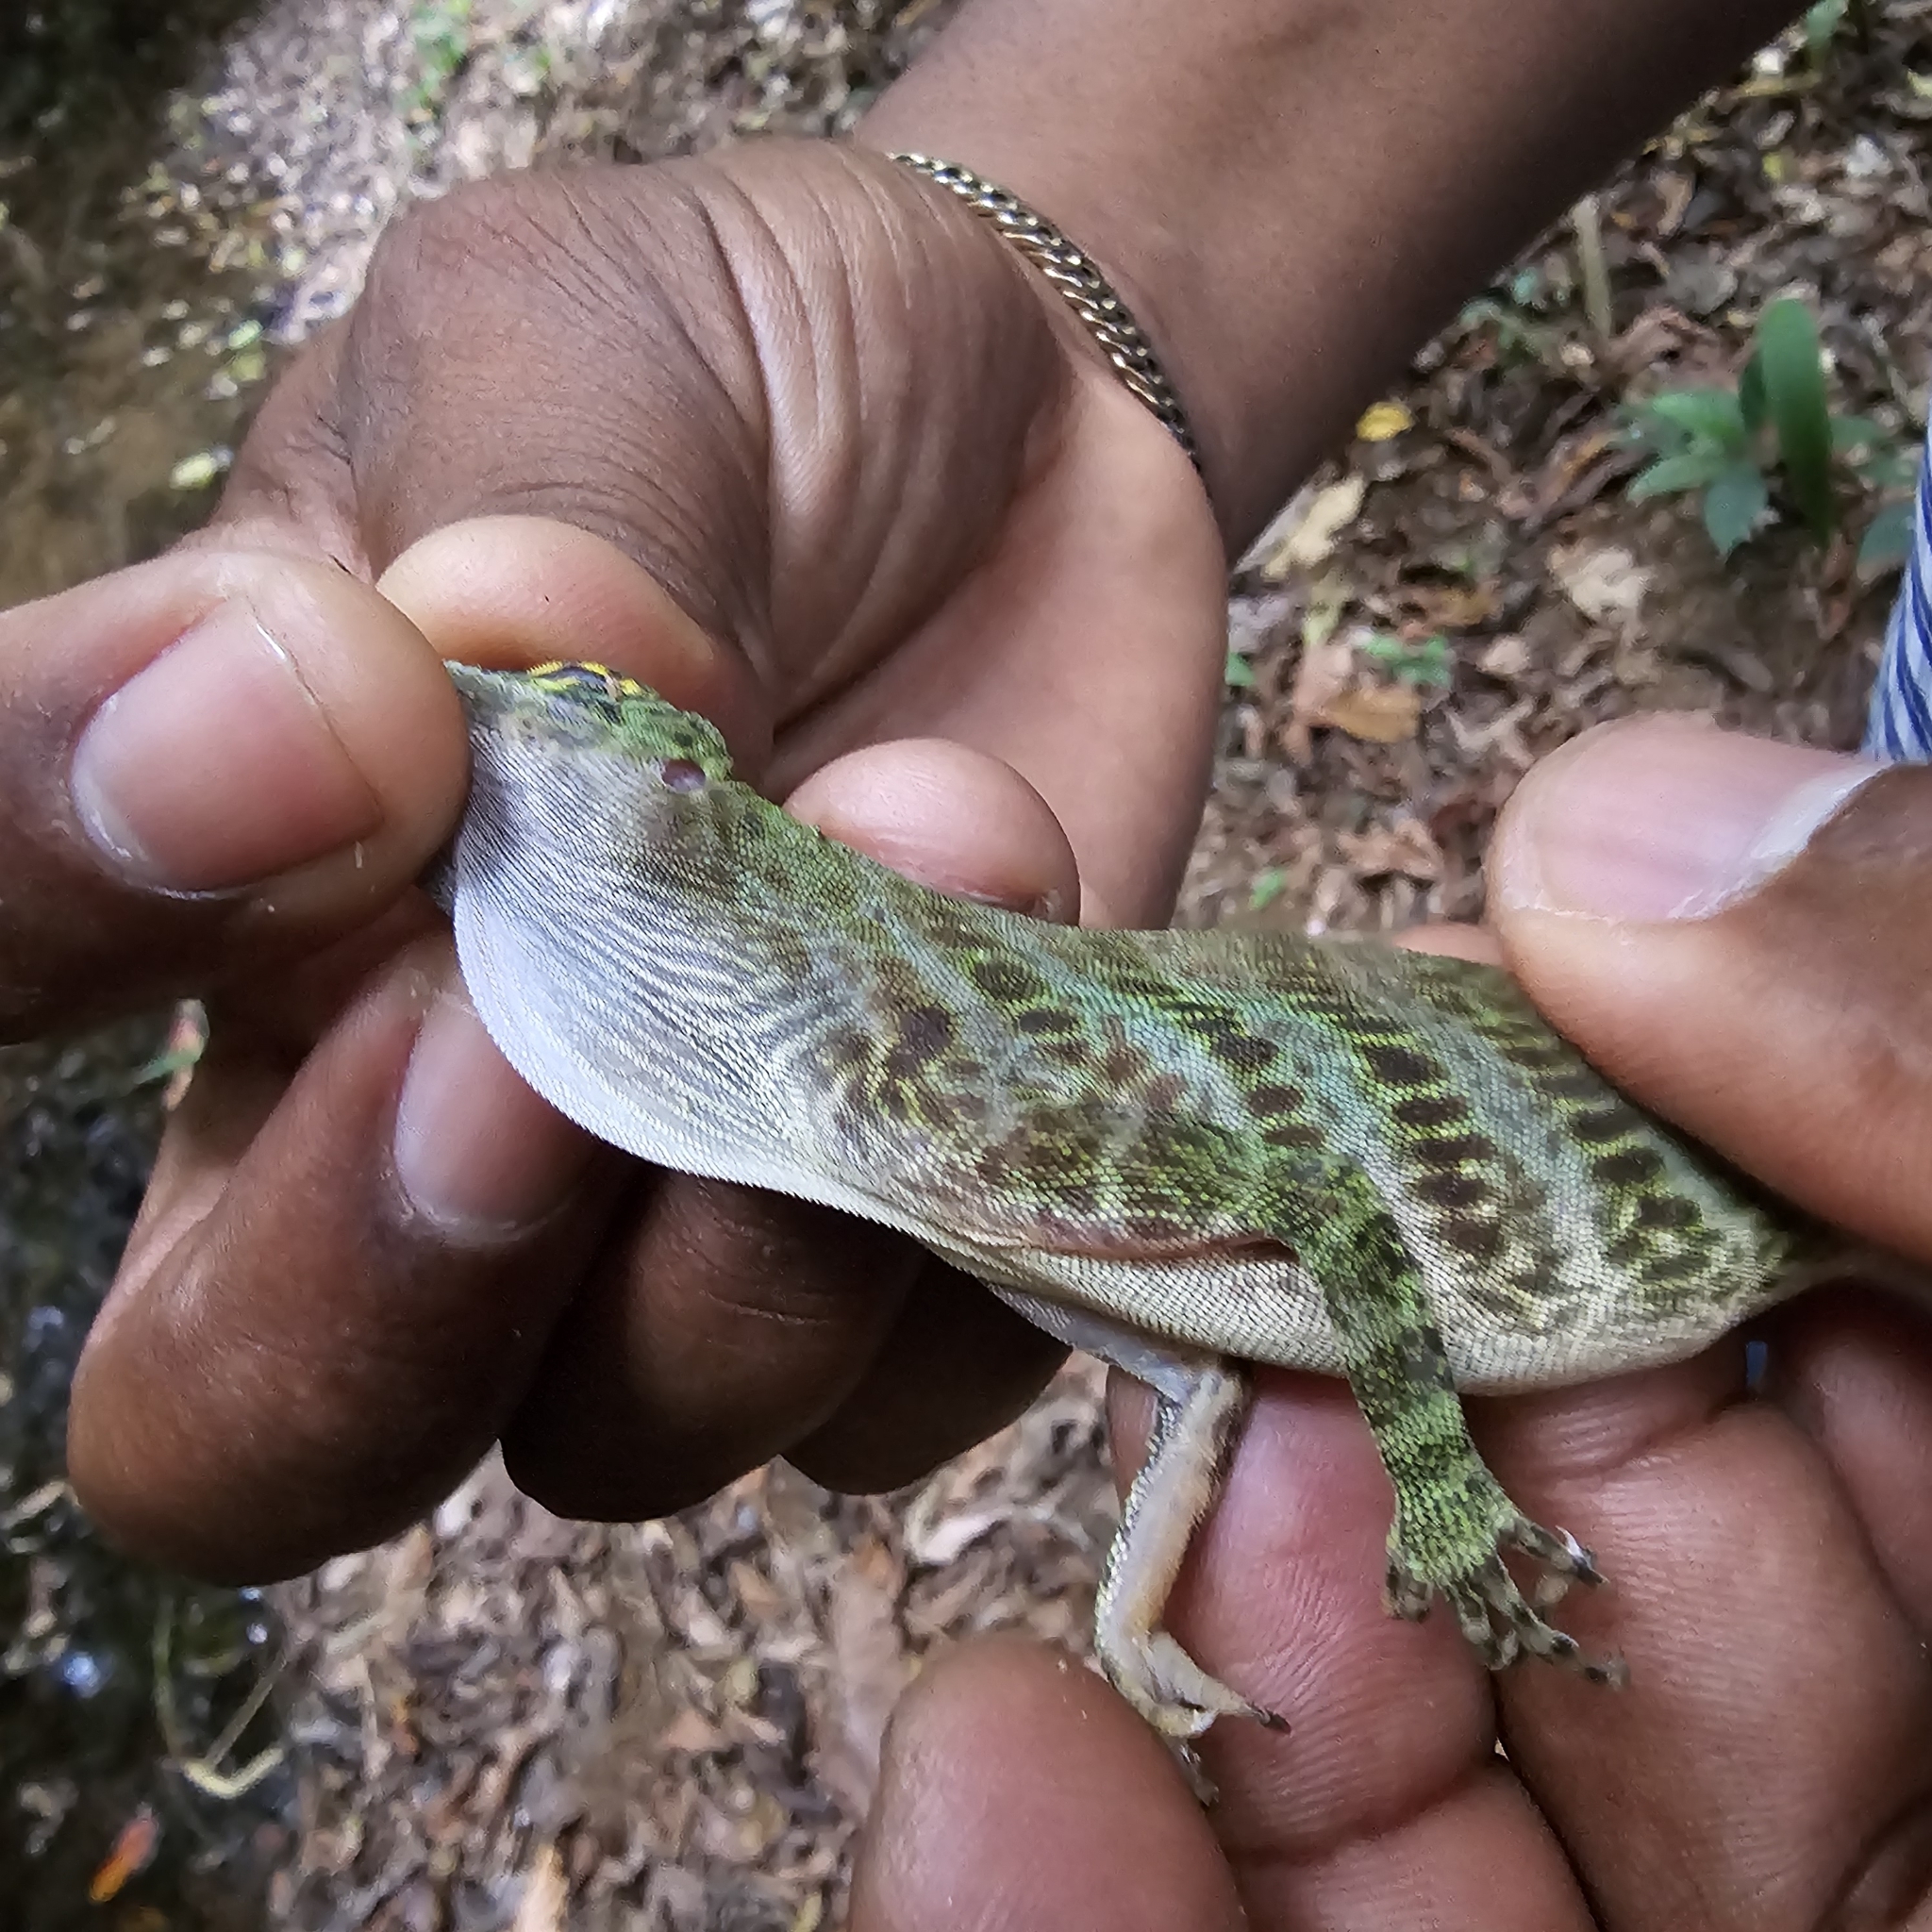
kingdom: Animalia
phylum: Chordata
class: Squamata
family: Dactyloidae
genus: Anolis
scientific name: Anolis frenatus
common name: Bridled anole
